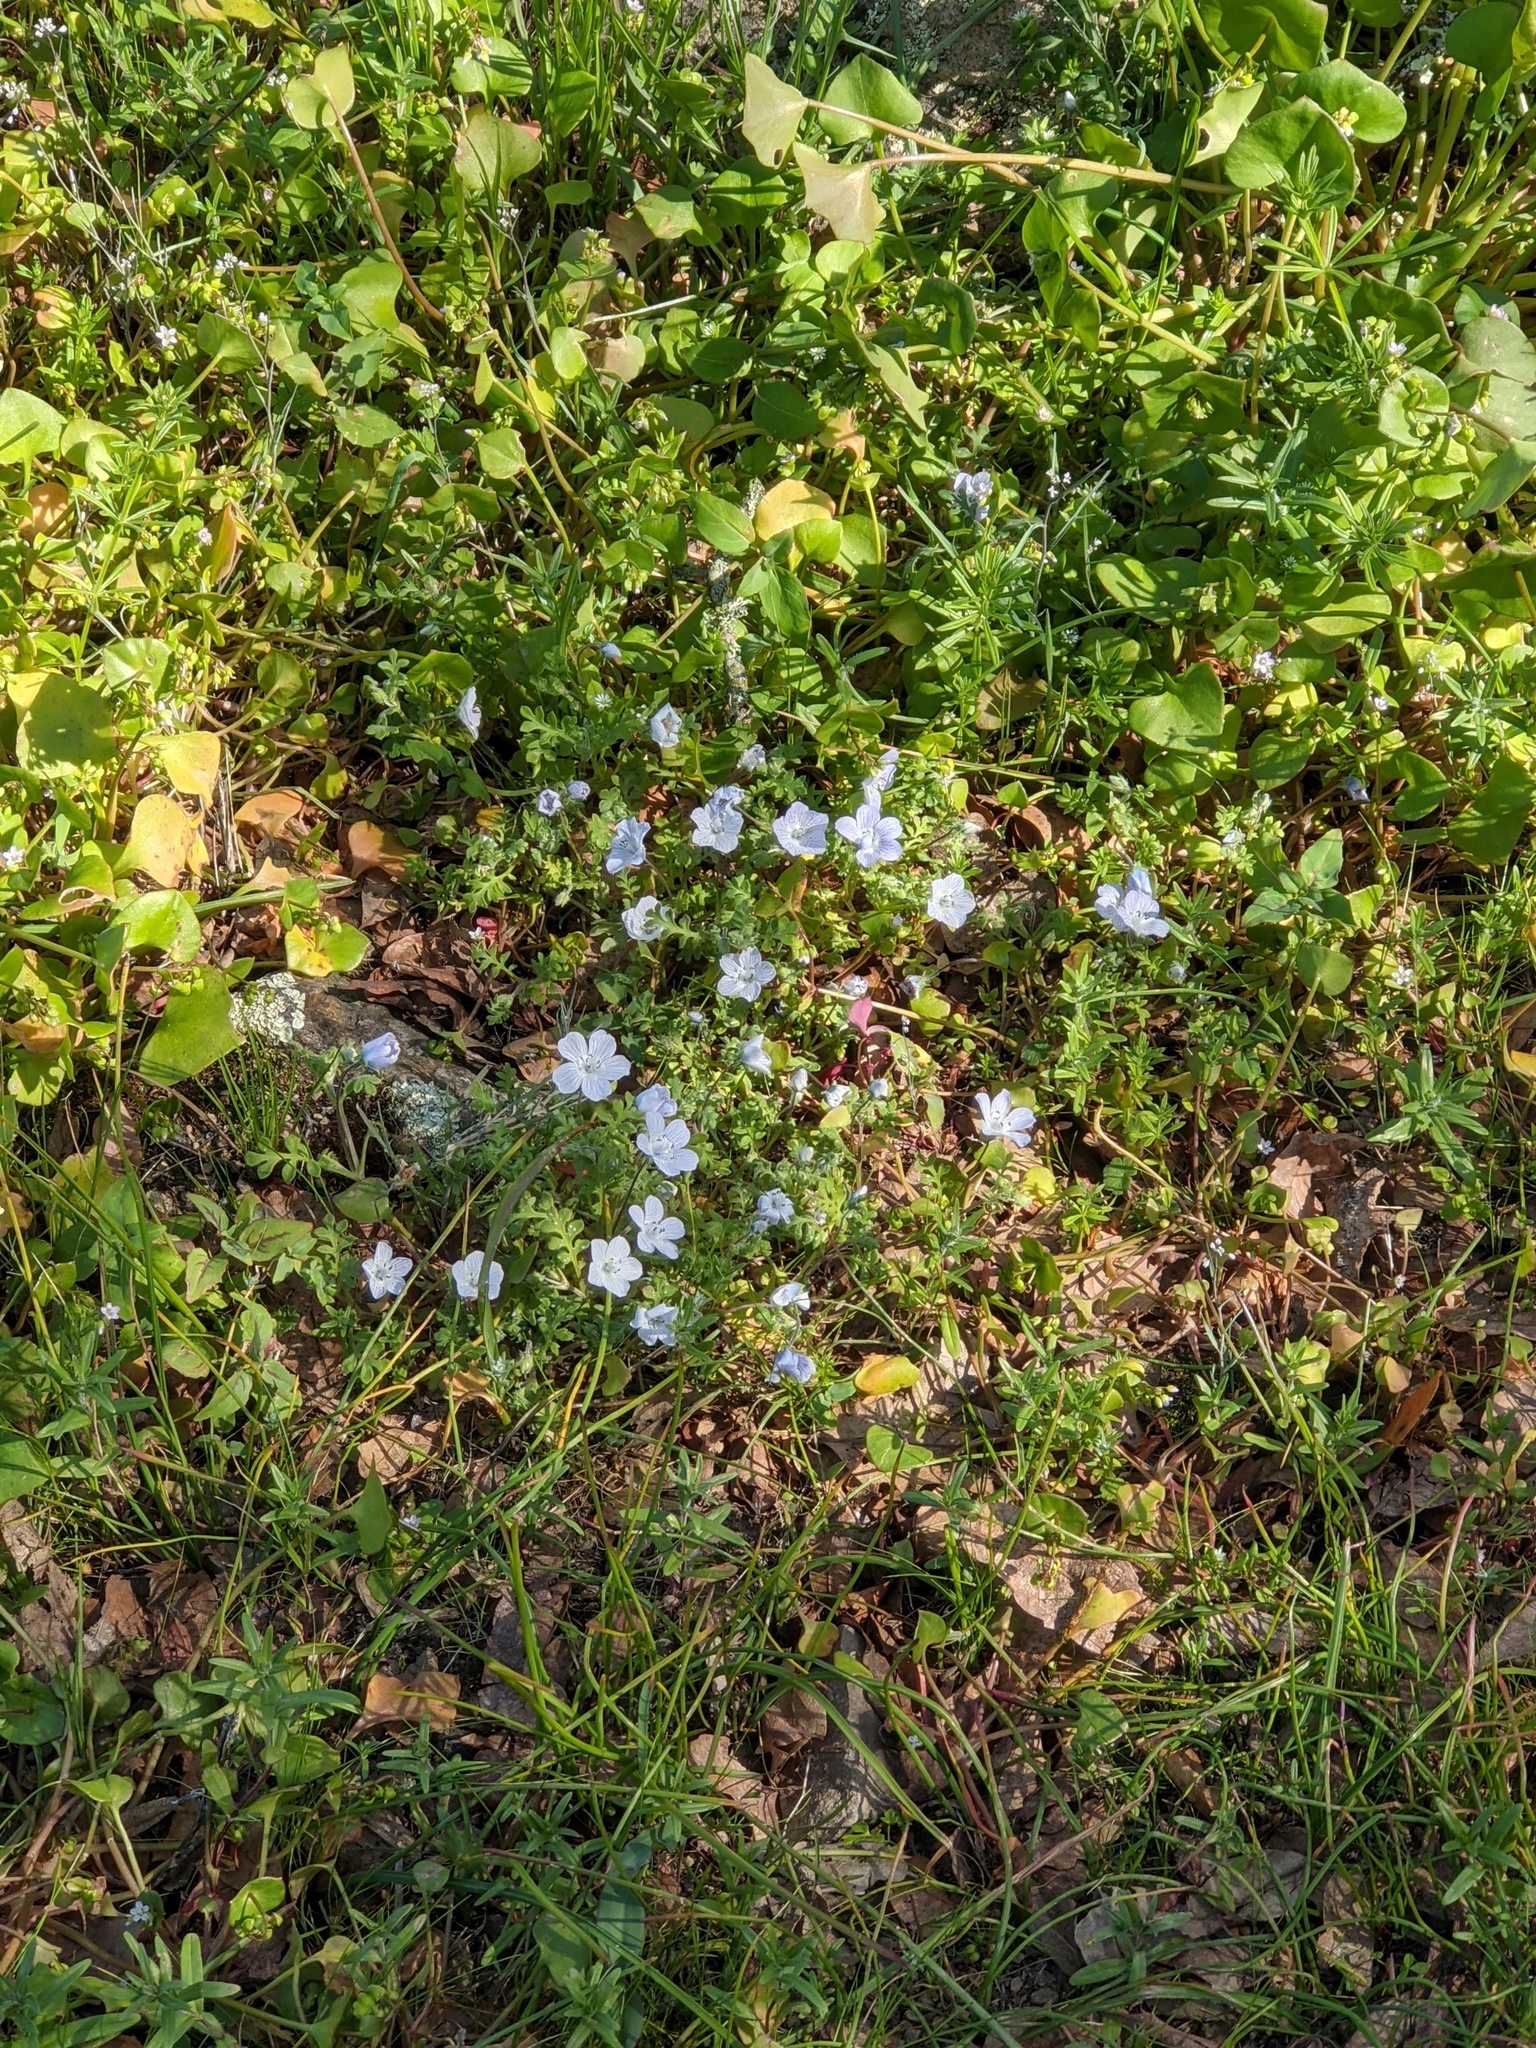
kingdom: Plantae
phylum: Tracheophyta
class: Magnoliopsida
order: Boraginales
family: Hydrophyllaceae
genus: Nemophila
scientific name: Nemophila menziesii
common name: Baby's-blue-eyes
